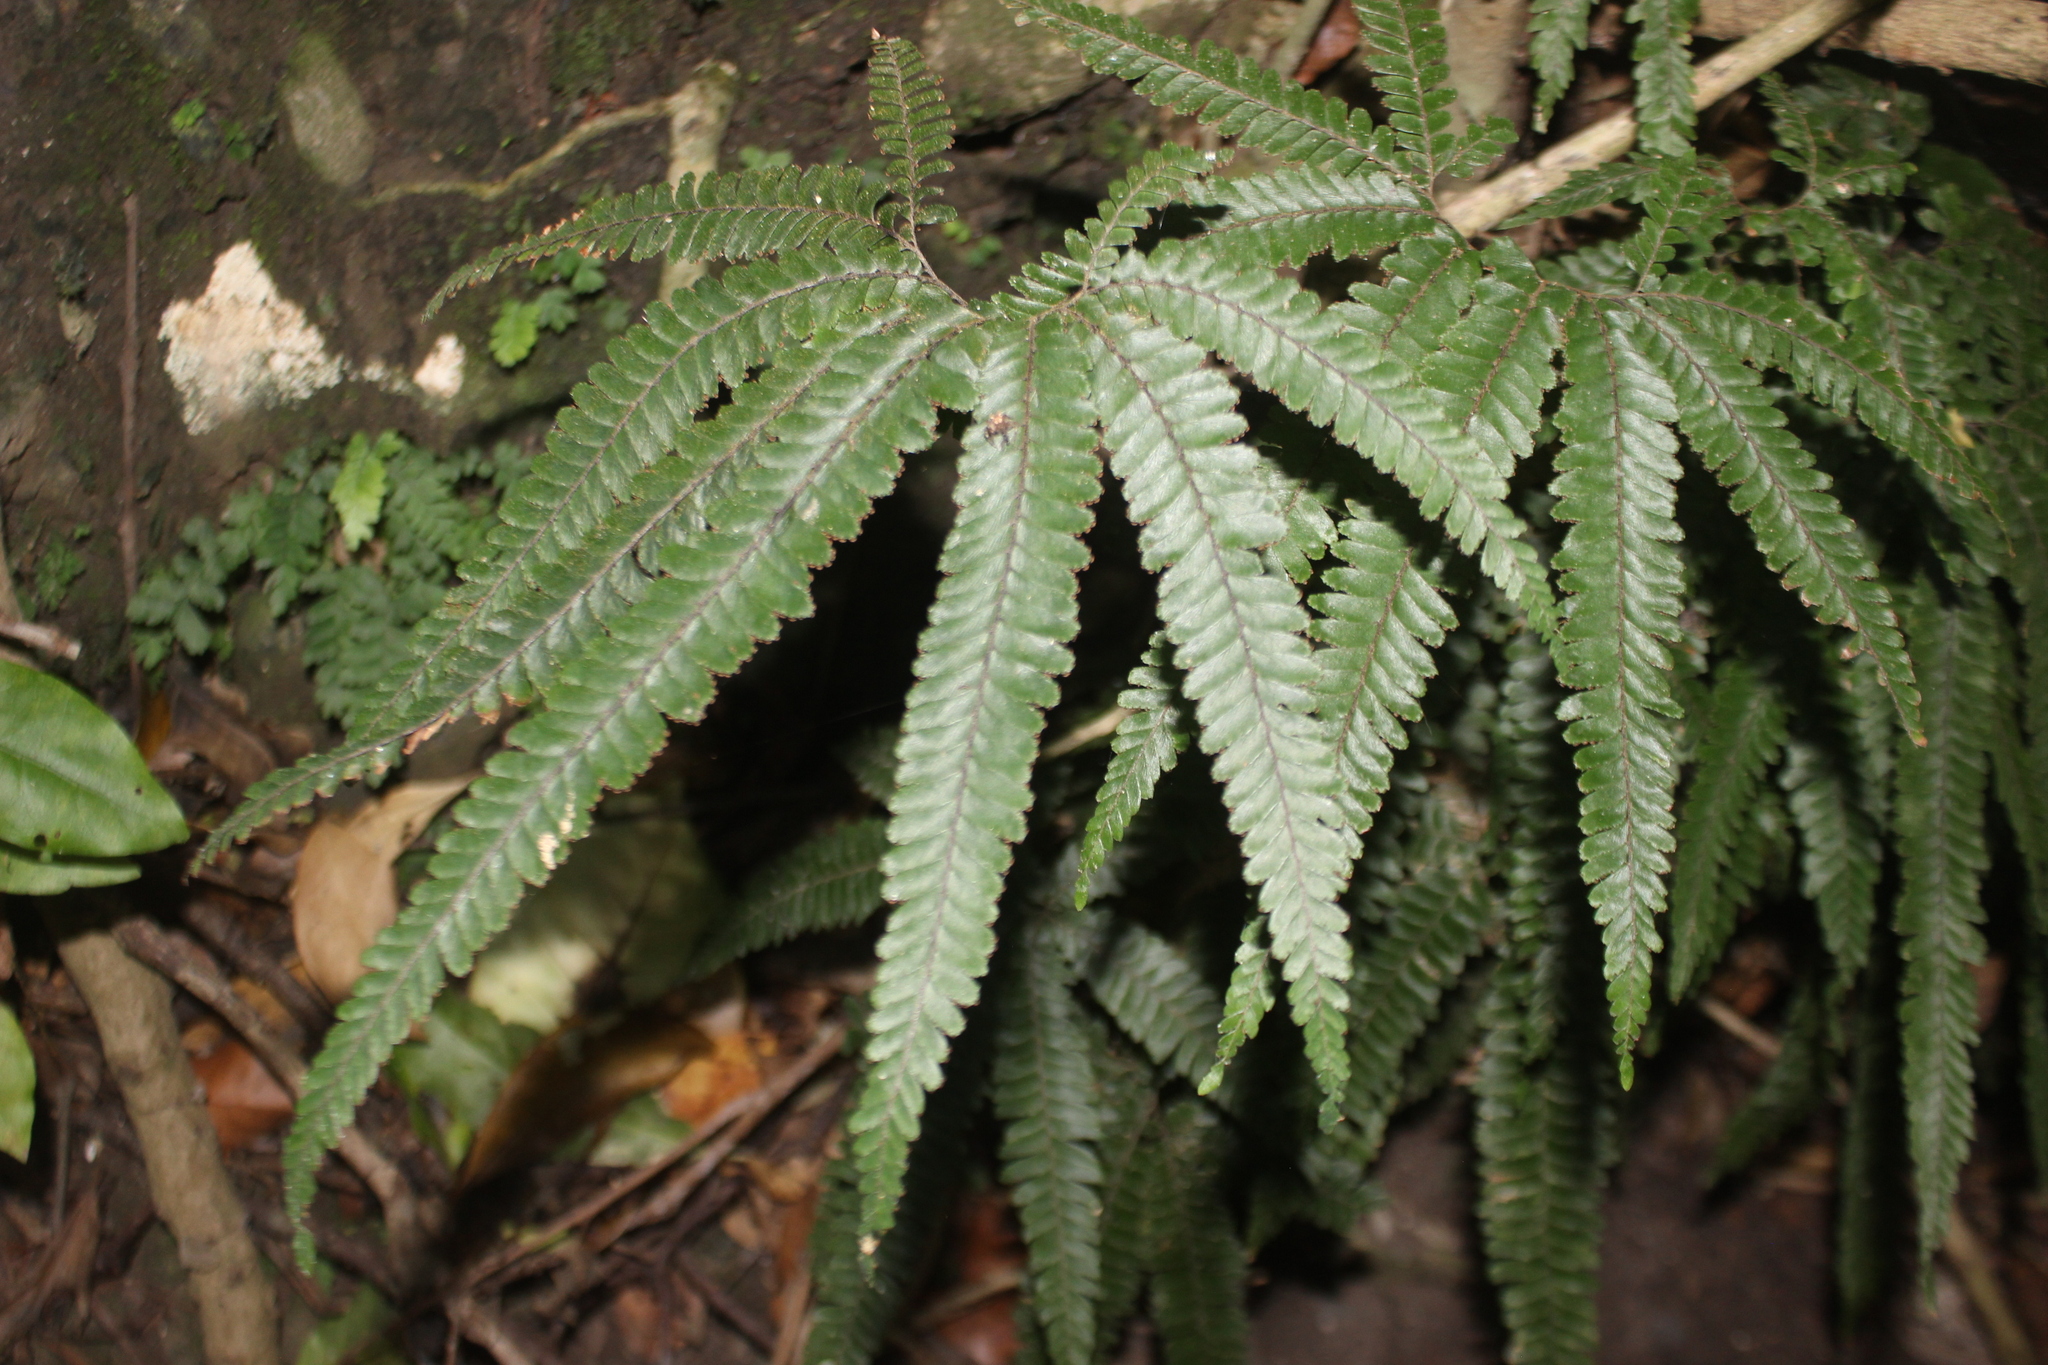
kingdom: Plantae
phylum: Tracheophyta
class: Polypodiopsida
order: Polypodiales
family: Pteridaceae
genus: Adiantum
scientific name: Adiantum hispidulum
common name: Rough maidenhair
